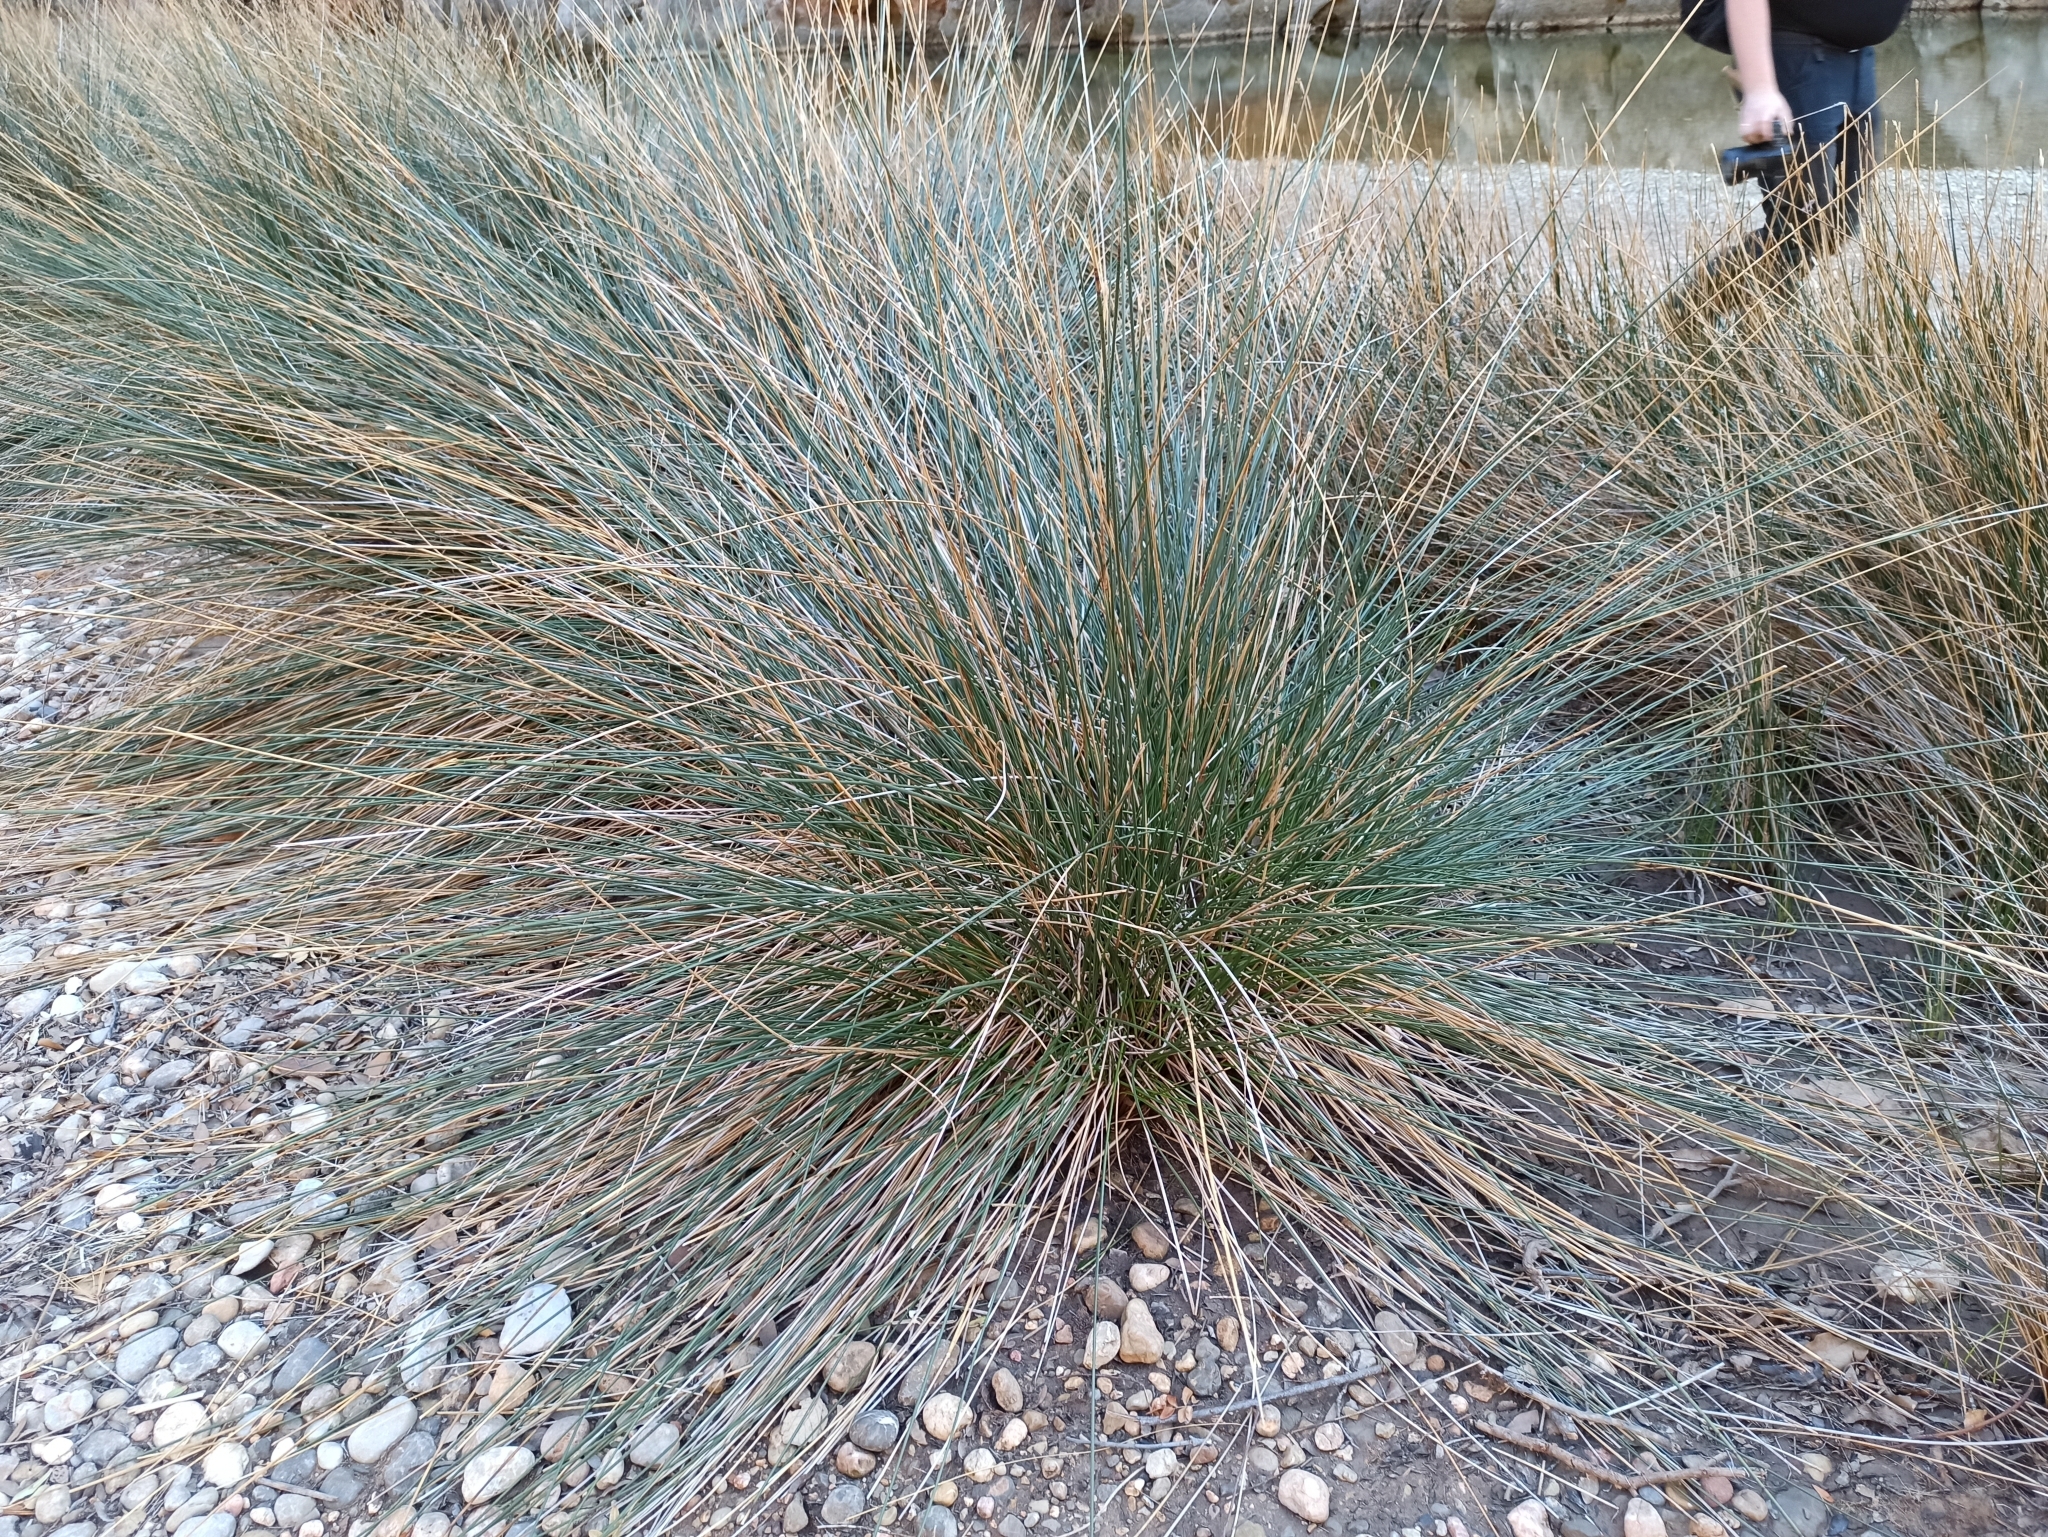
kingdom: Plantae
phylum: Tracheophyta
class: Liliopsida
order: Poales
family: Juncaceae
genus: Juncus
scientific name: Juncus acutus
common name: Sharp rush
